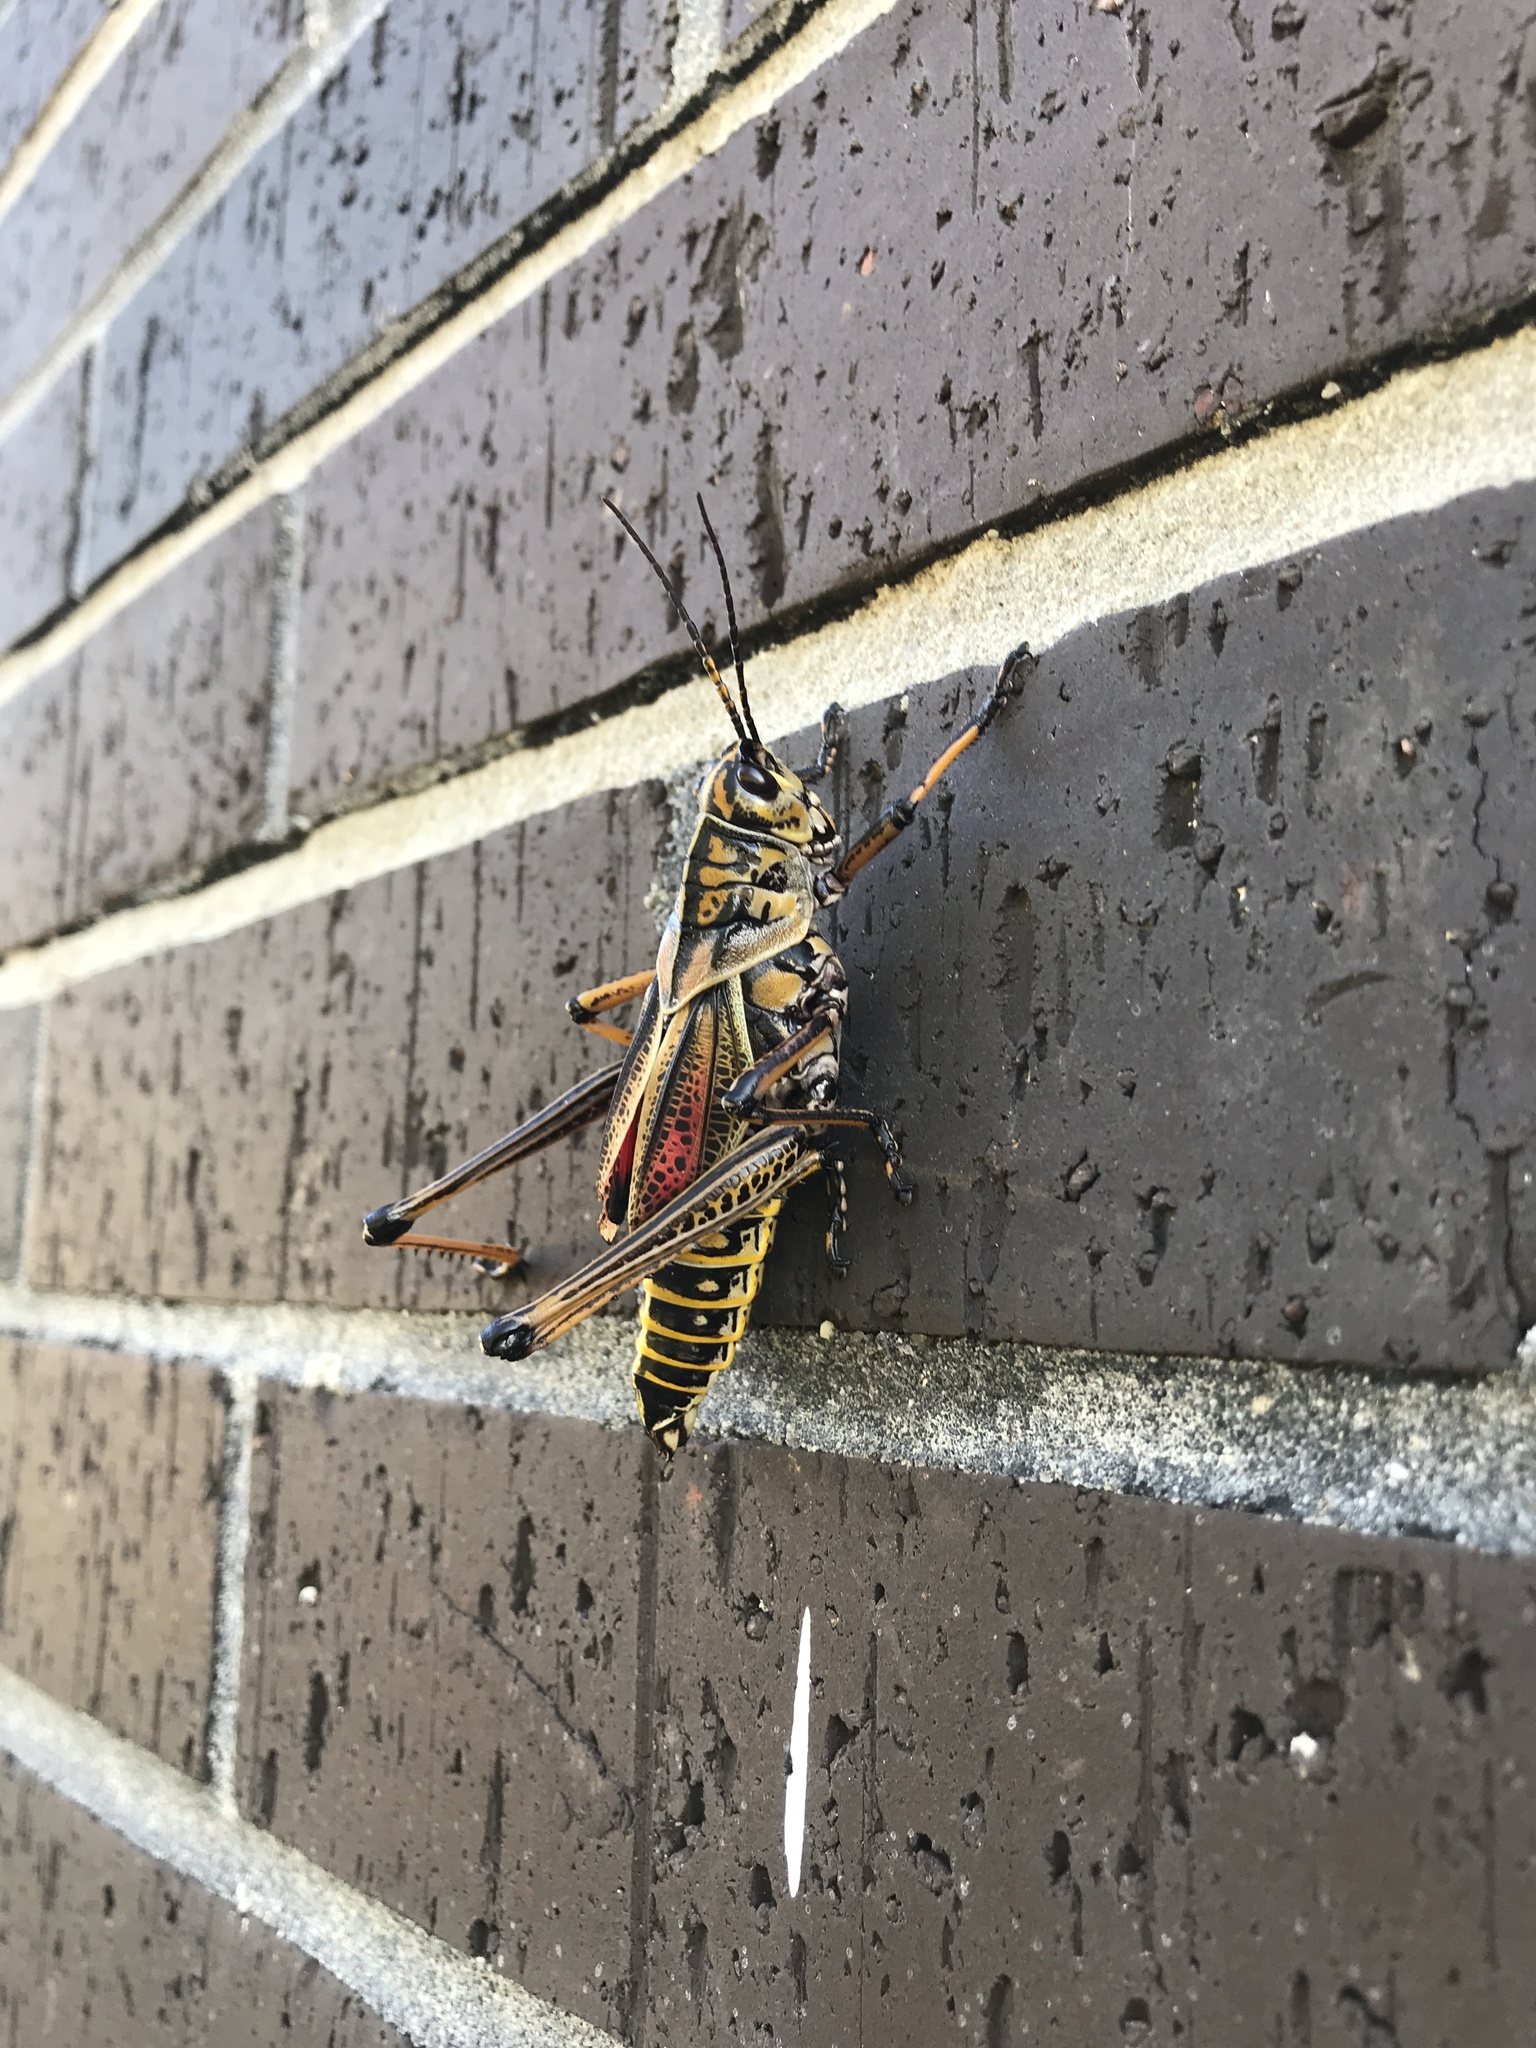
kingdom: Animalia
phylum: Arthropoda
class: Insecta
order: Orthoptera
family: Romaleidae
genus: Romalea
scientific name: Romalea microptera
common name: Eastern lubber grasshopper
